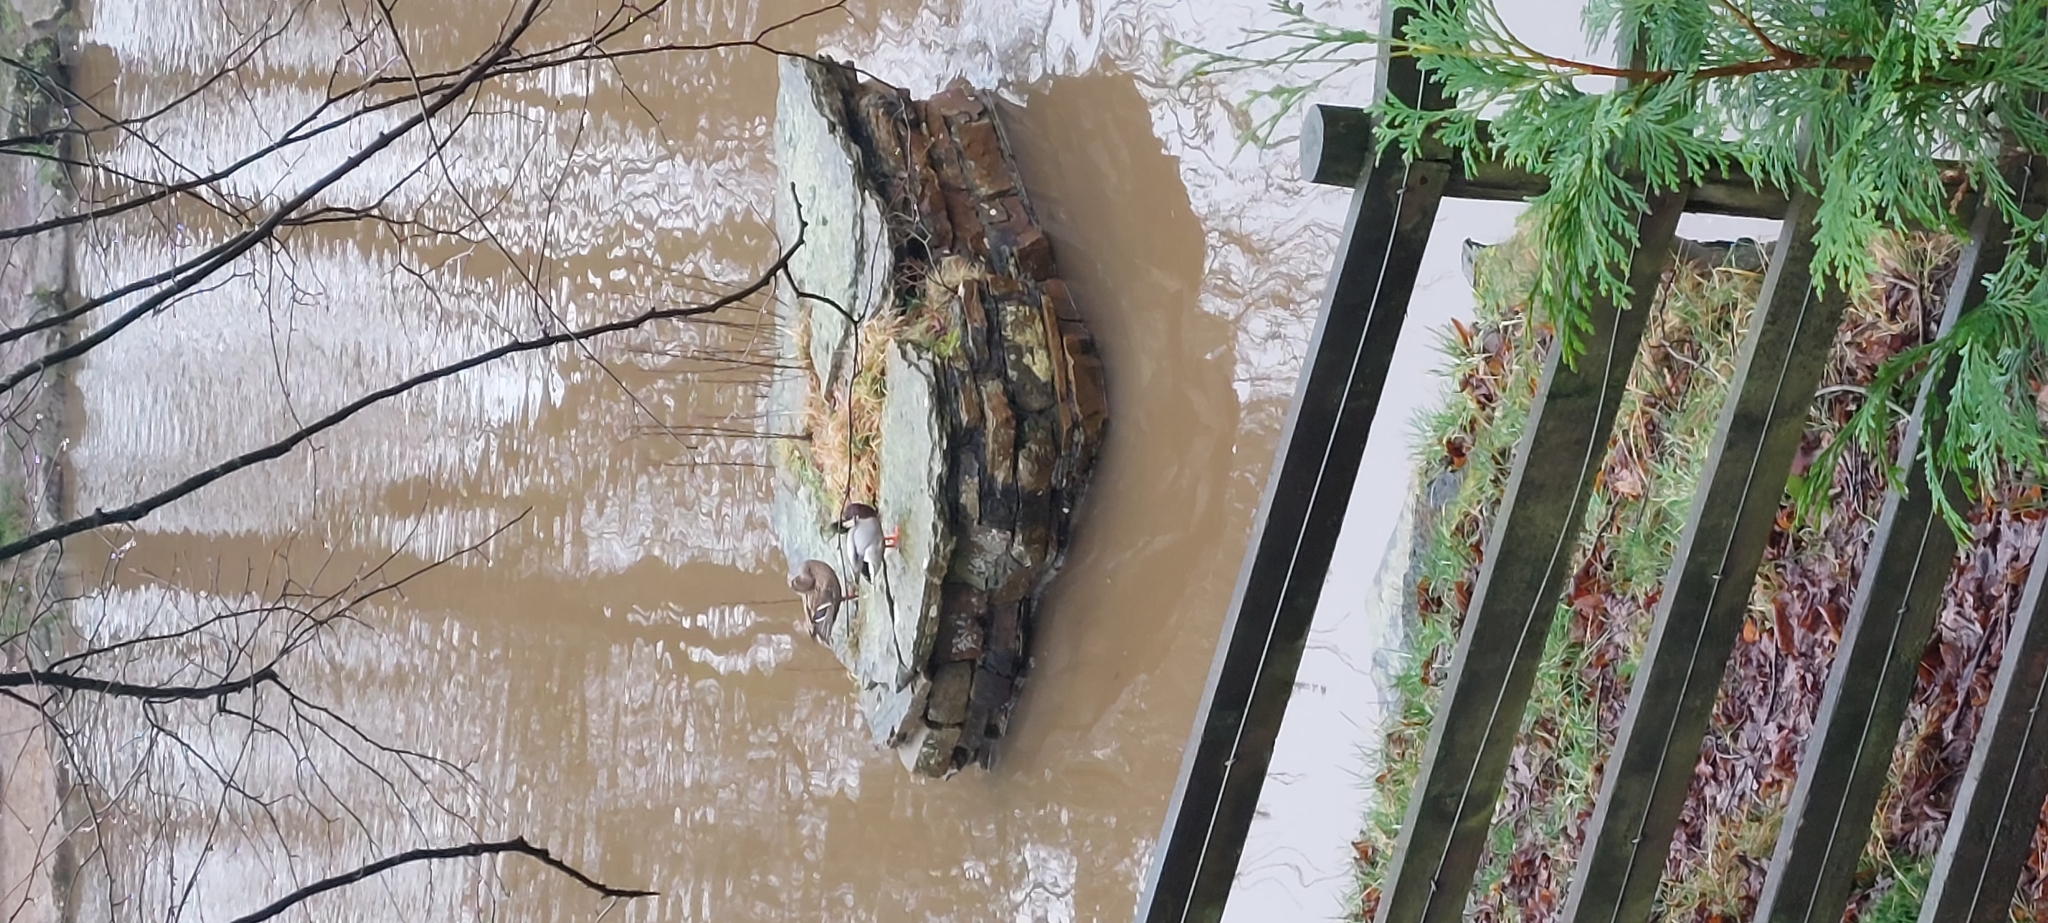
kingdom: Animalia
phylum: Chordata
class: Aves
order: Anseriformes
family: Anatidae
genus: Anas
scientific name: Anas platyrhynchos
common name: Mallard
